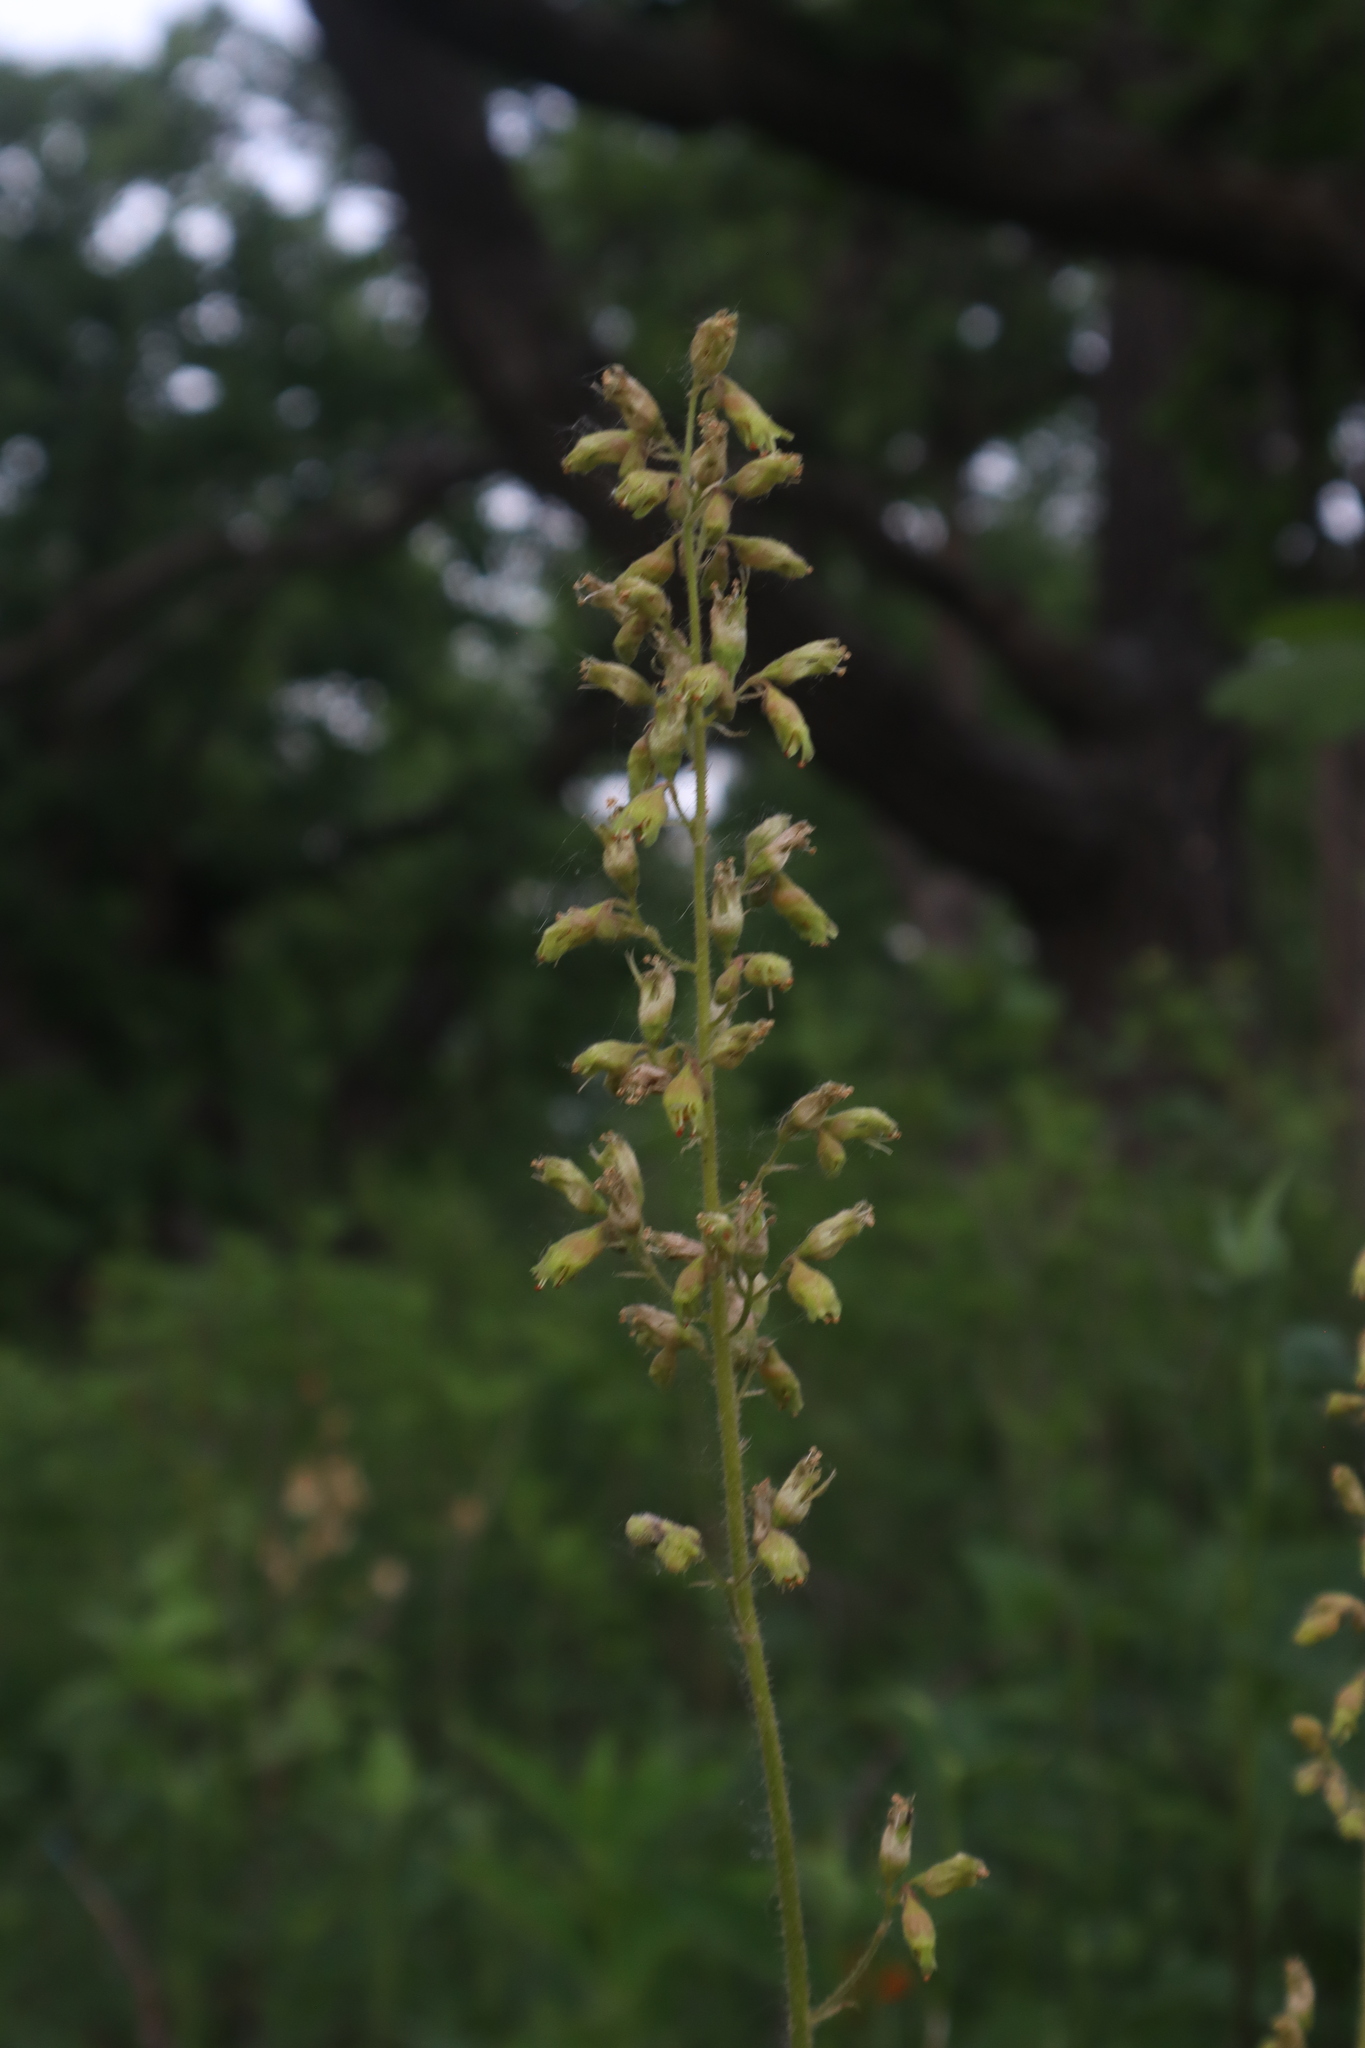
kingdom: Plantae
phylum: Tracheophyta
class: Magnoliopsida
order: Saxifragales
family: Saxifragaceae
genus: Heuchera
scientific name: Heuchera richardsonii
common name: Richardson's alumroot
